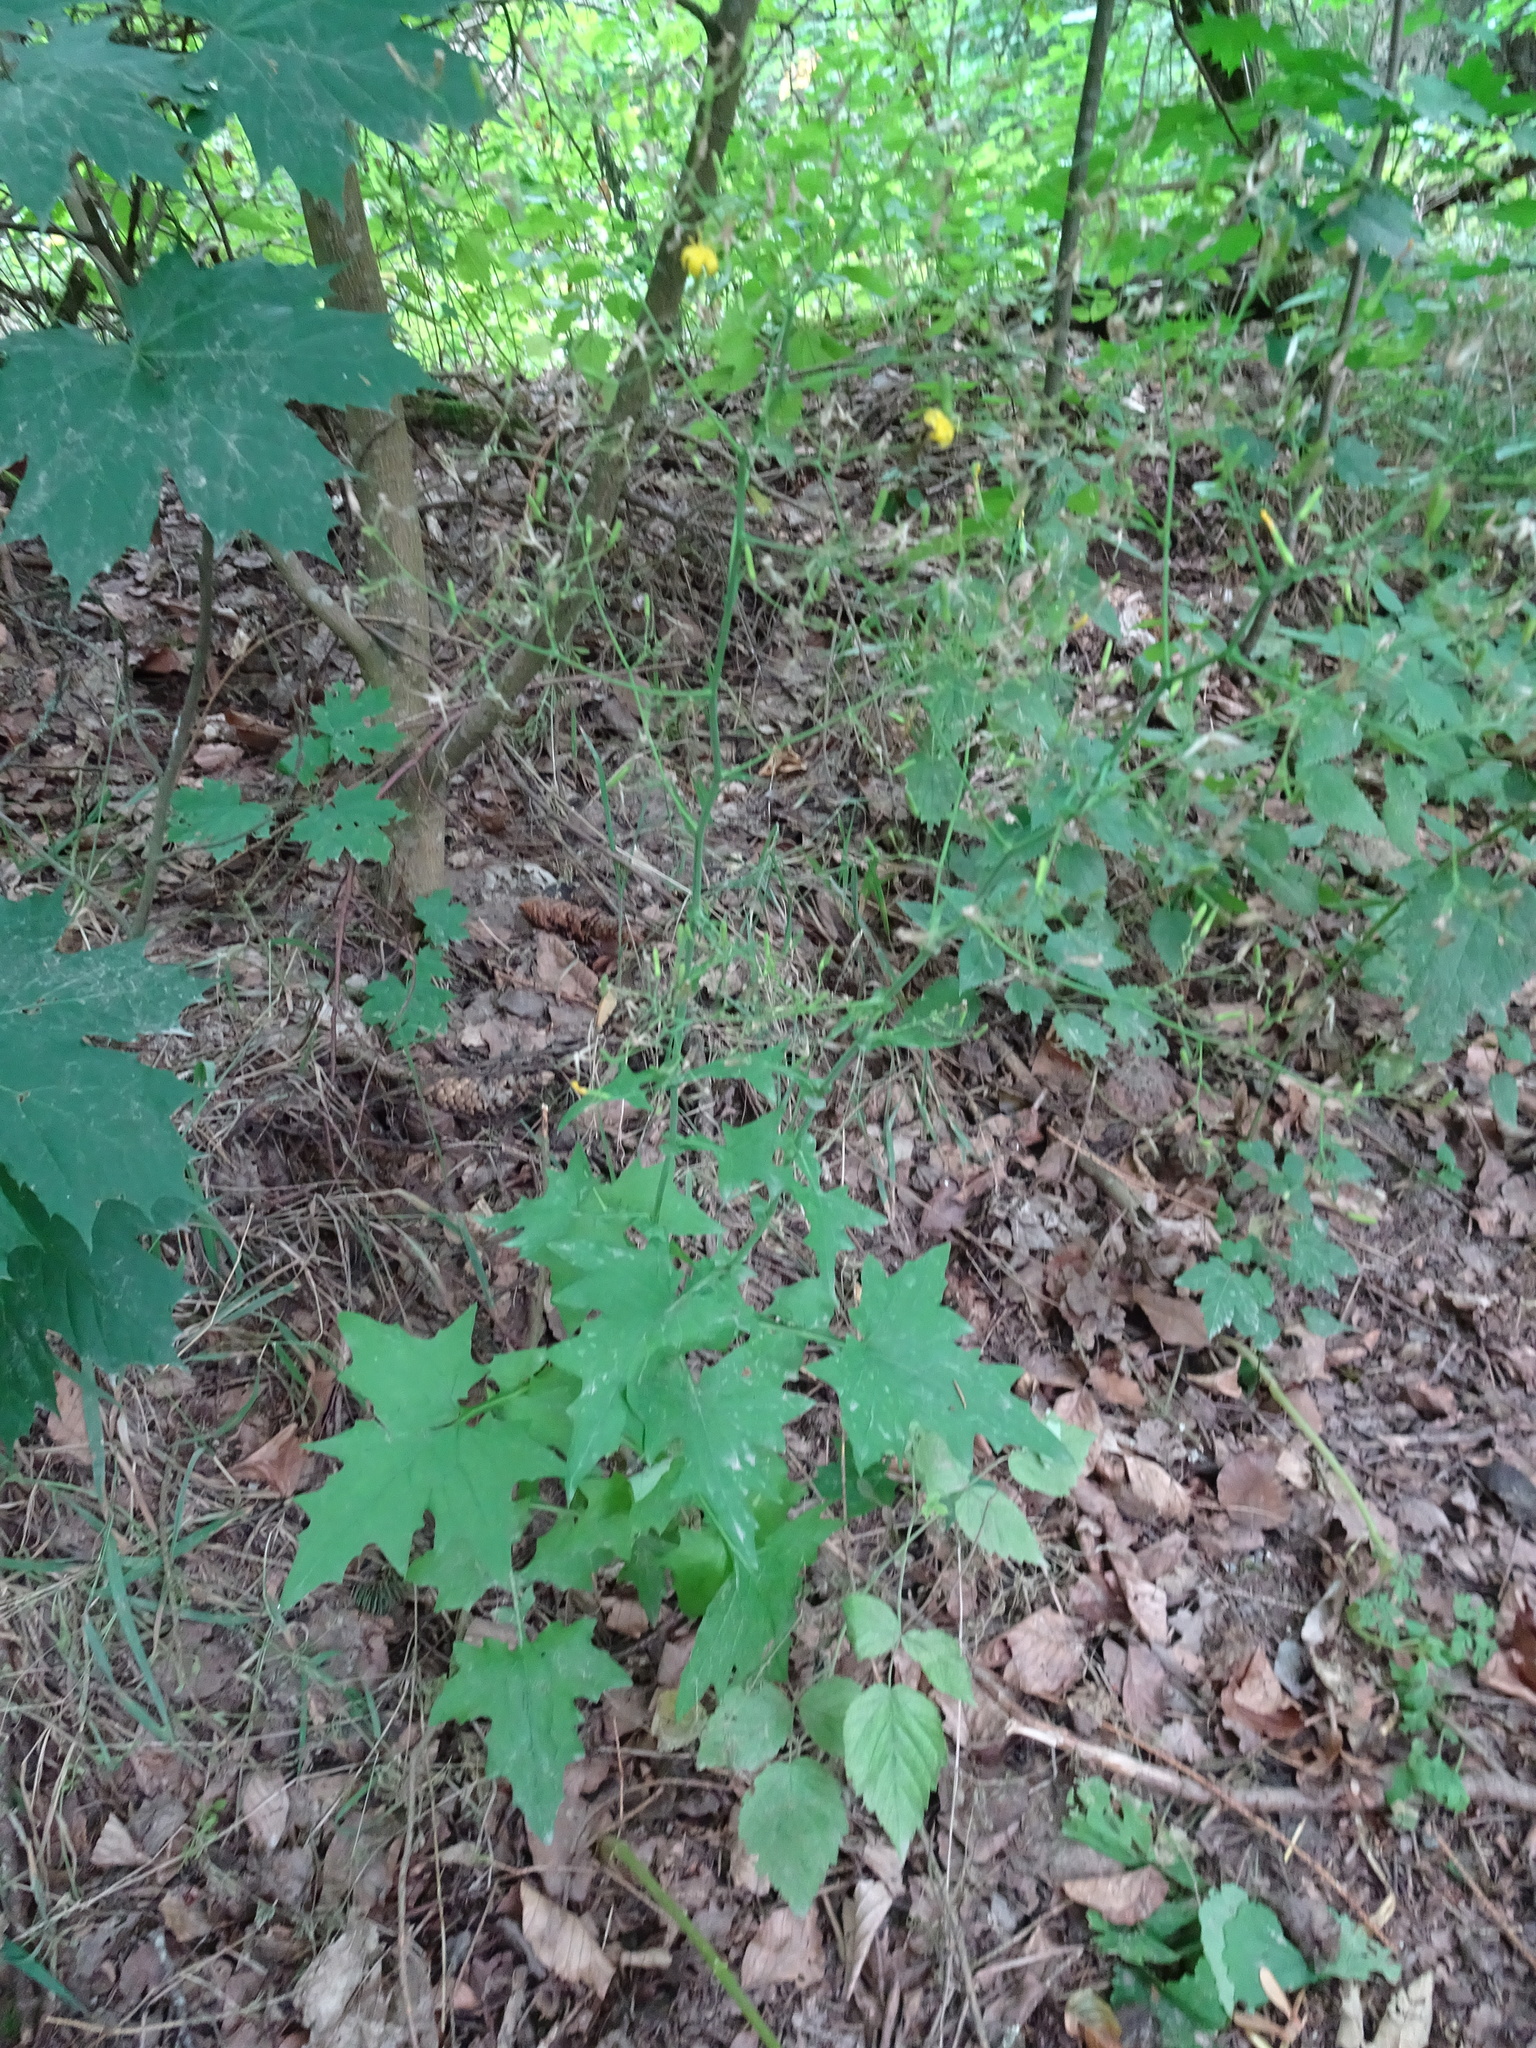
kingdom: Plantae
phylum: Tracheophyta
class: Magnoliopsida
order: Asterales
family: Asteraceae
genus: Mycelis
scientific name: Mycelis muralis
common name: Wall lettuce
